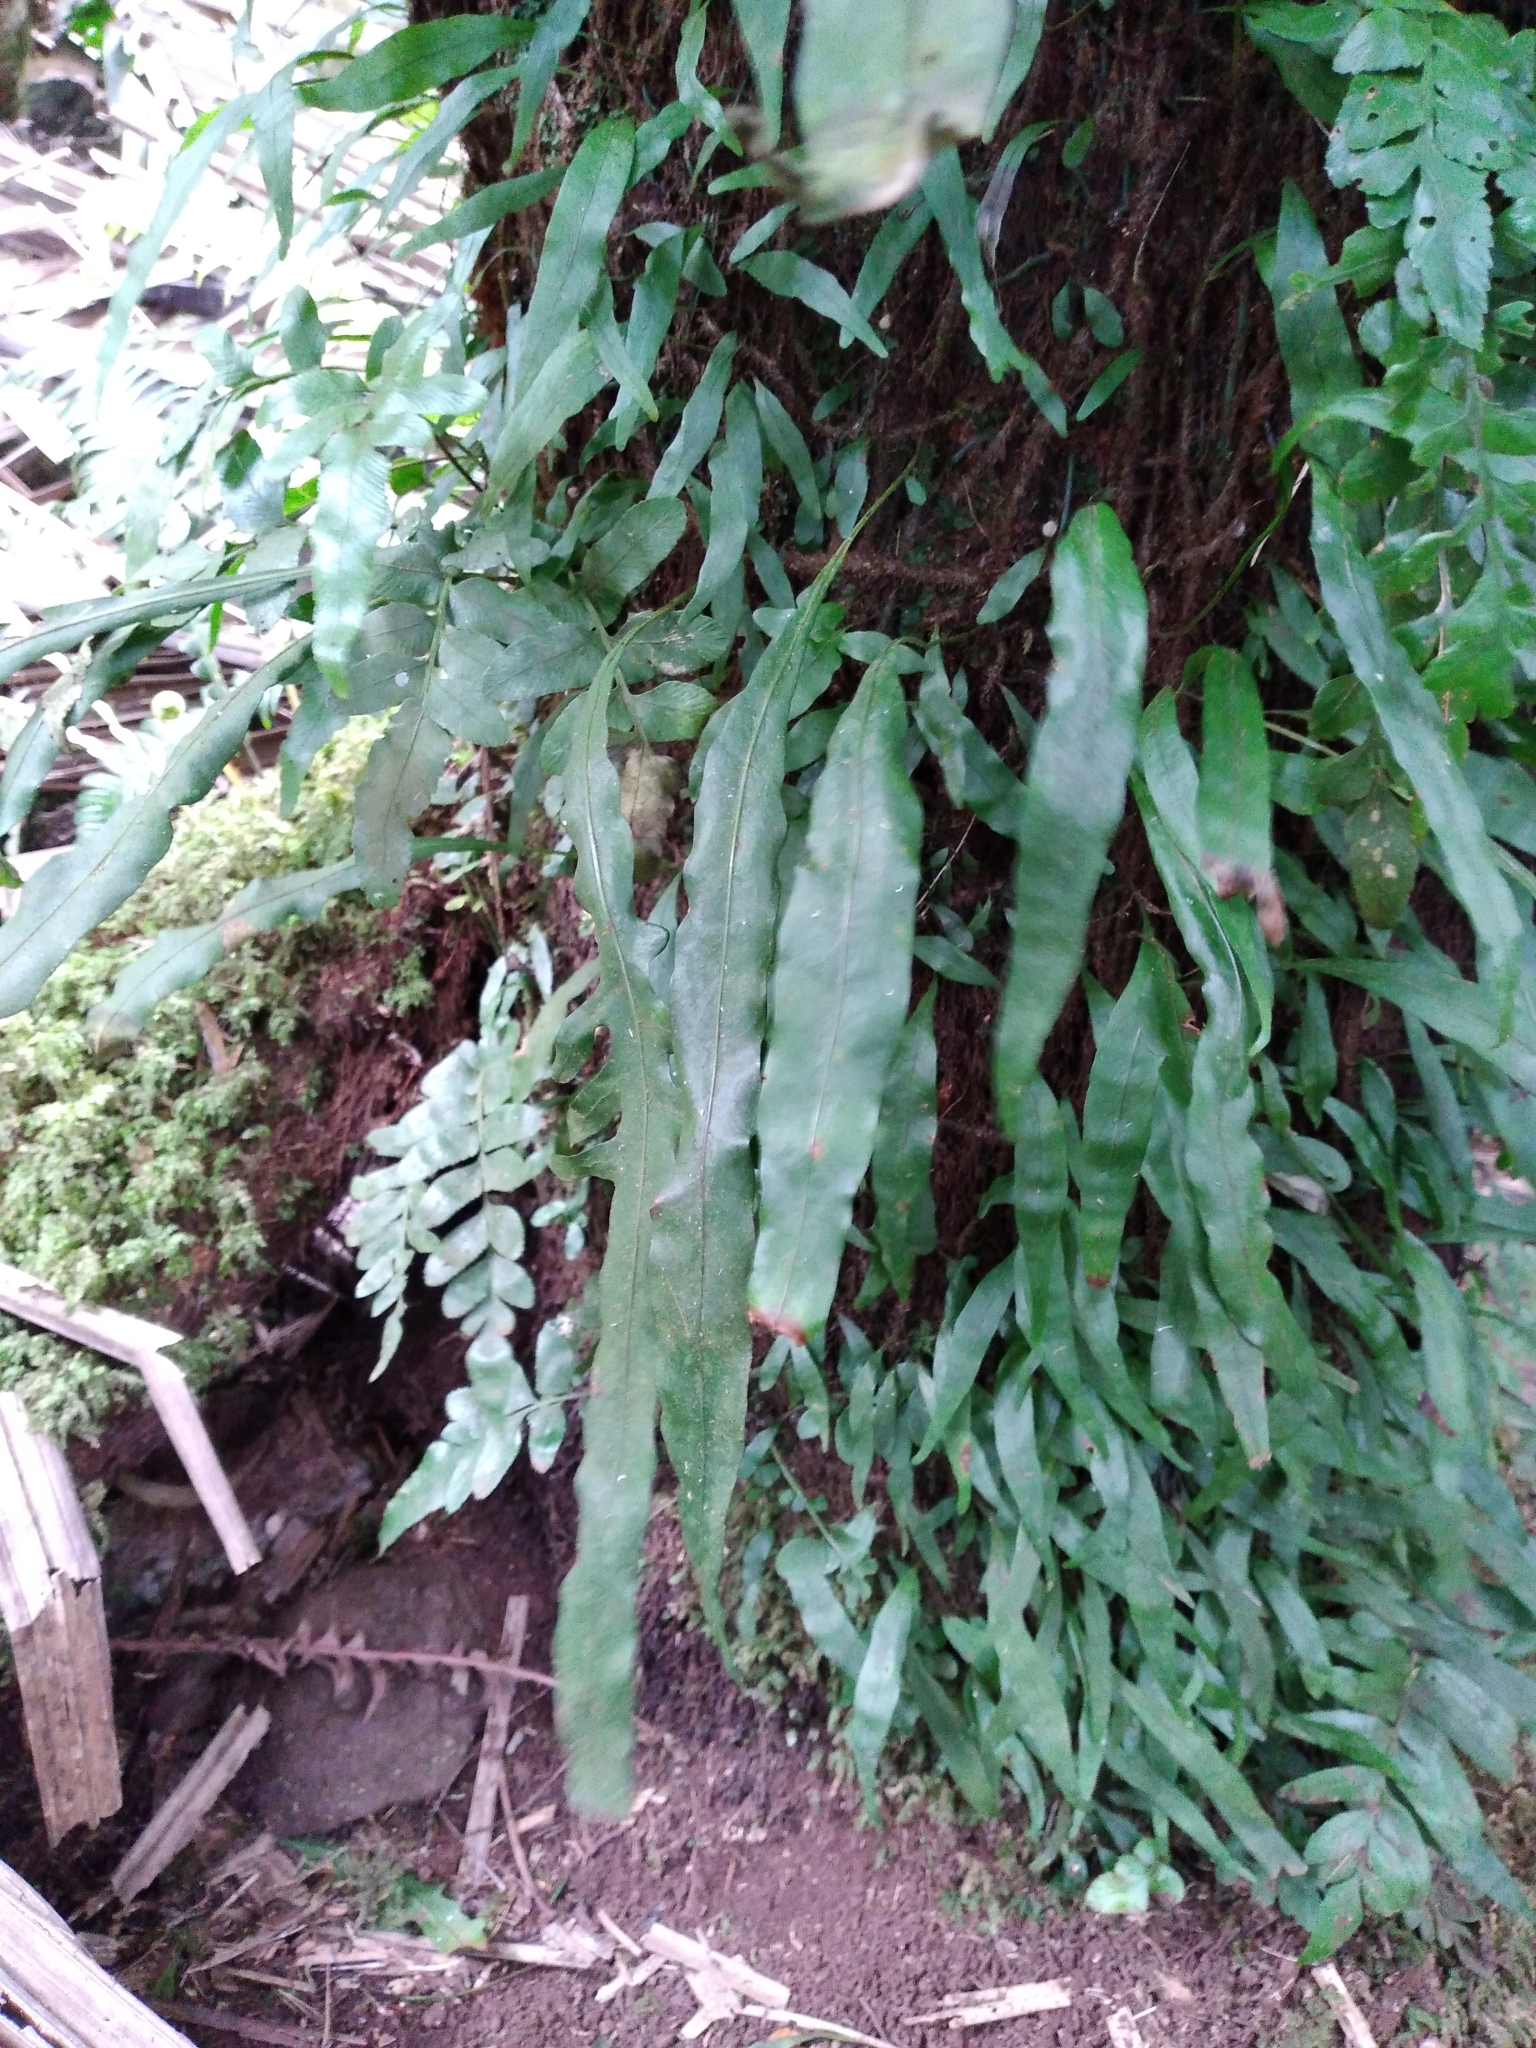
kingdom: Plantae
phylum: Tracheophyta
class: Polypodiopsida
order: Polypodiales
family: Polypodiaceae
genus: Lecanopteris
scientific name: Lecanopteris scandens
